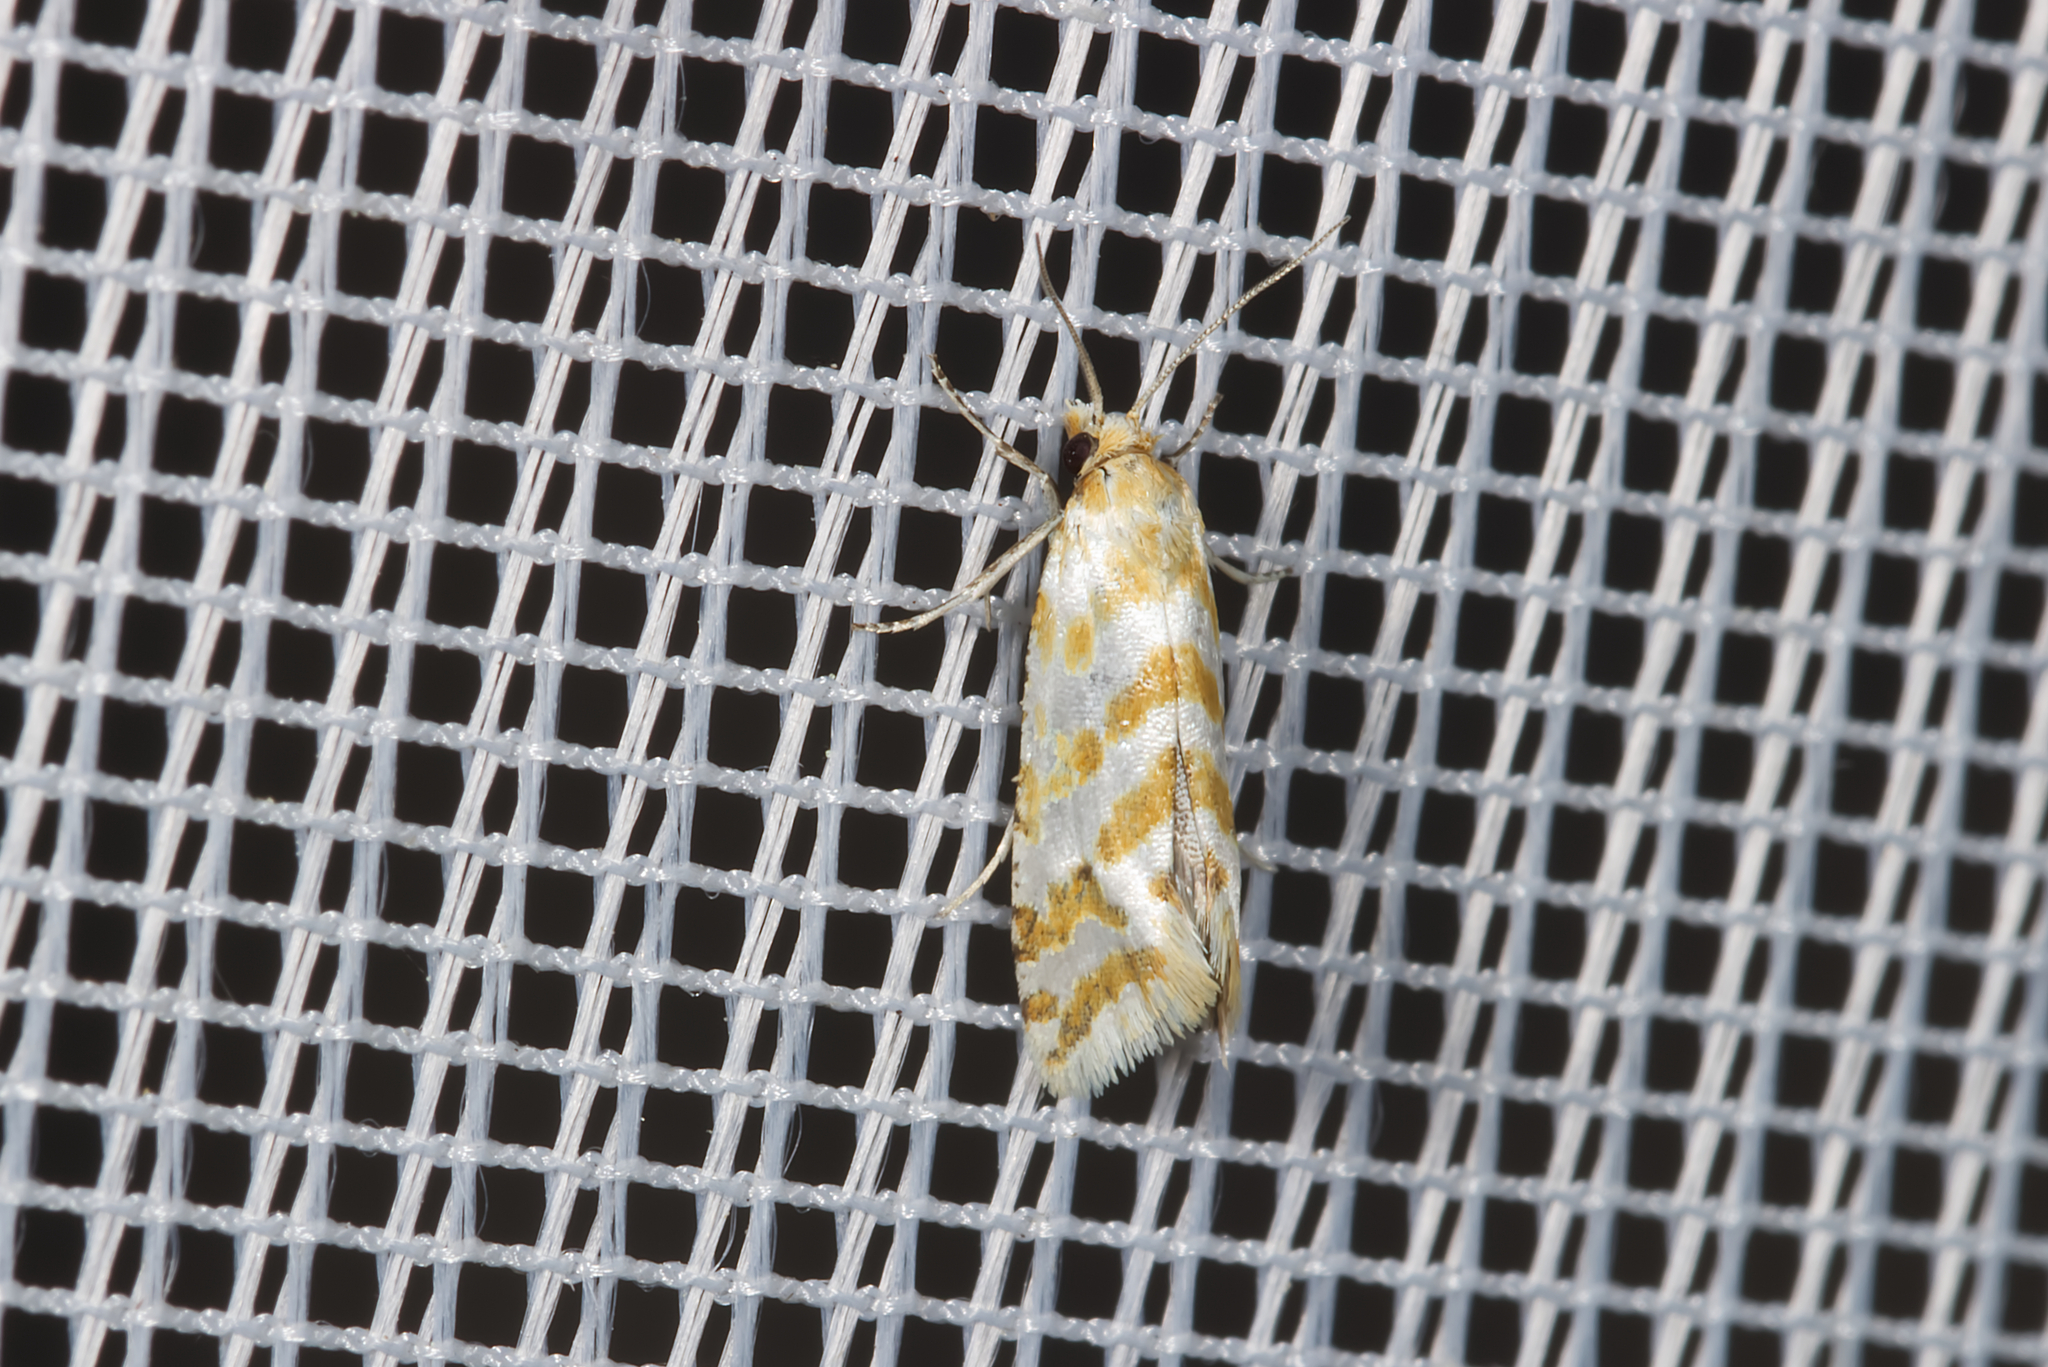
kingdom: Animalia
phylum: Arthropoda
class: Insecta
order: Lepidoptera
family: Tortricidae
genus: Aethes
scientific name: Aethes margaritana
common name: Silver coast conch
